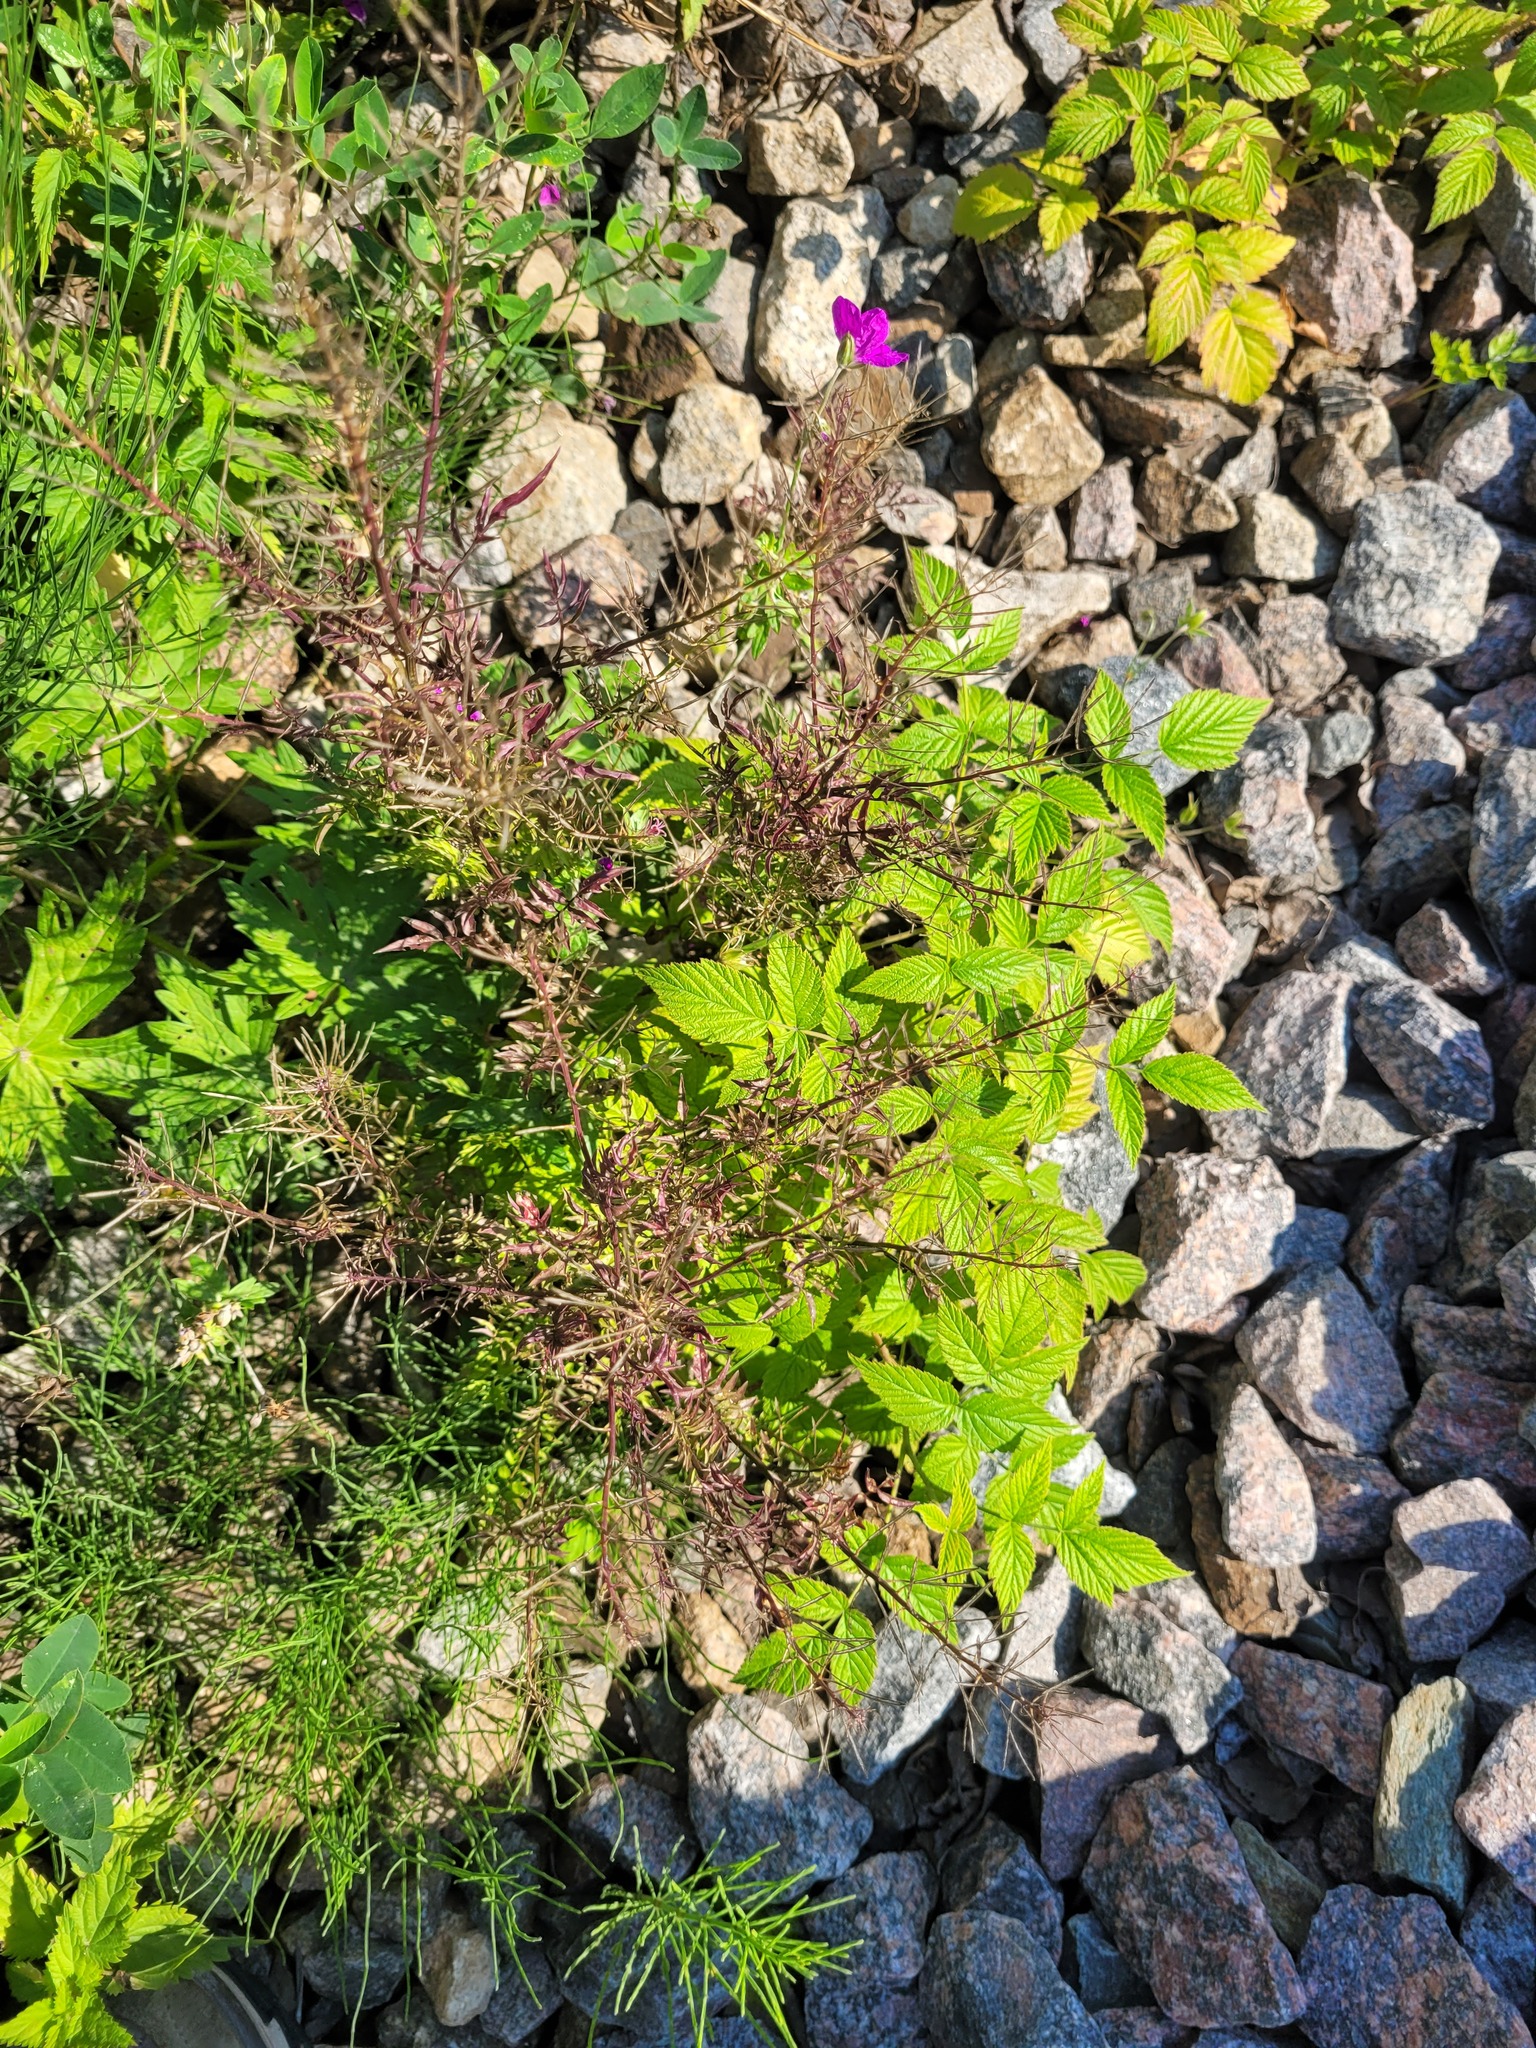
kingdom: Plantae
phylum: Tracheophyta
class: Magnoliopsida
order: Brassicales
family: Brassicaceae
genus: Cardamine
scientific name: Cardamine impatiens
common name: Narrow-leaved bitter-cress
